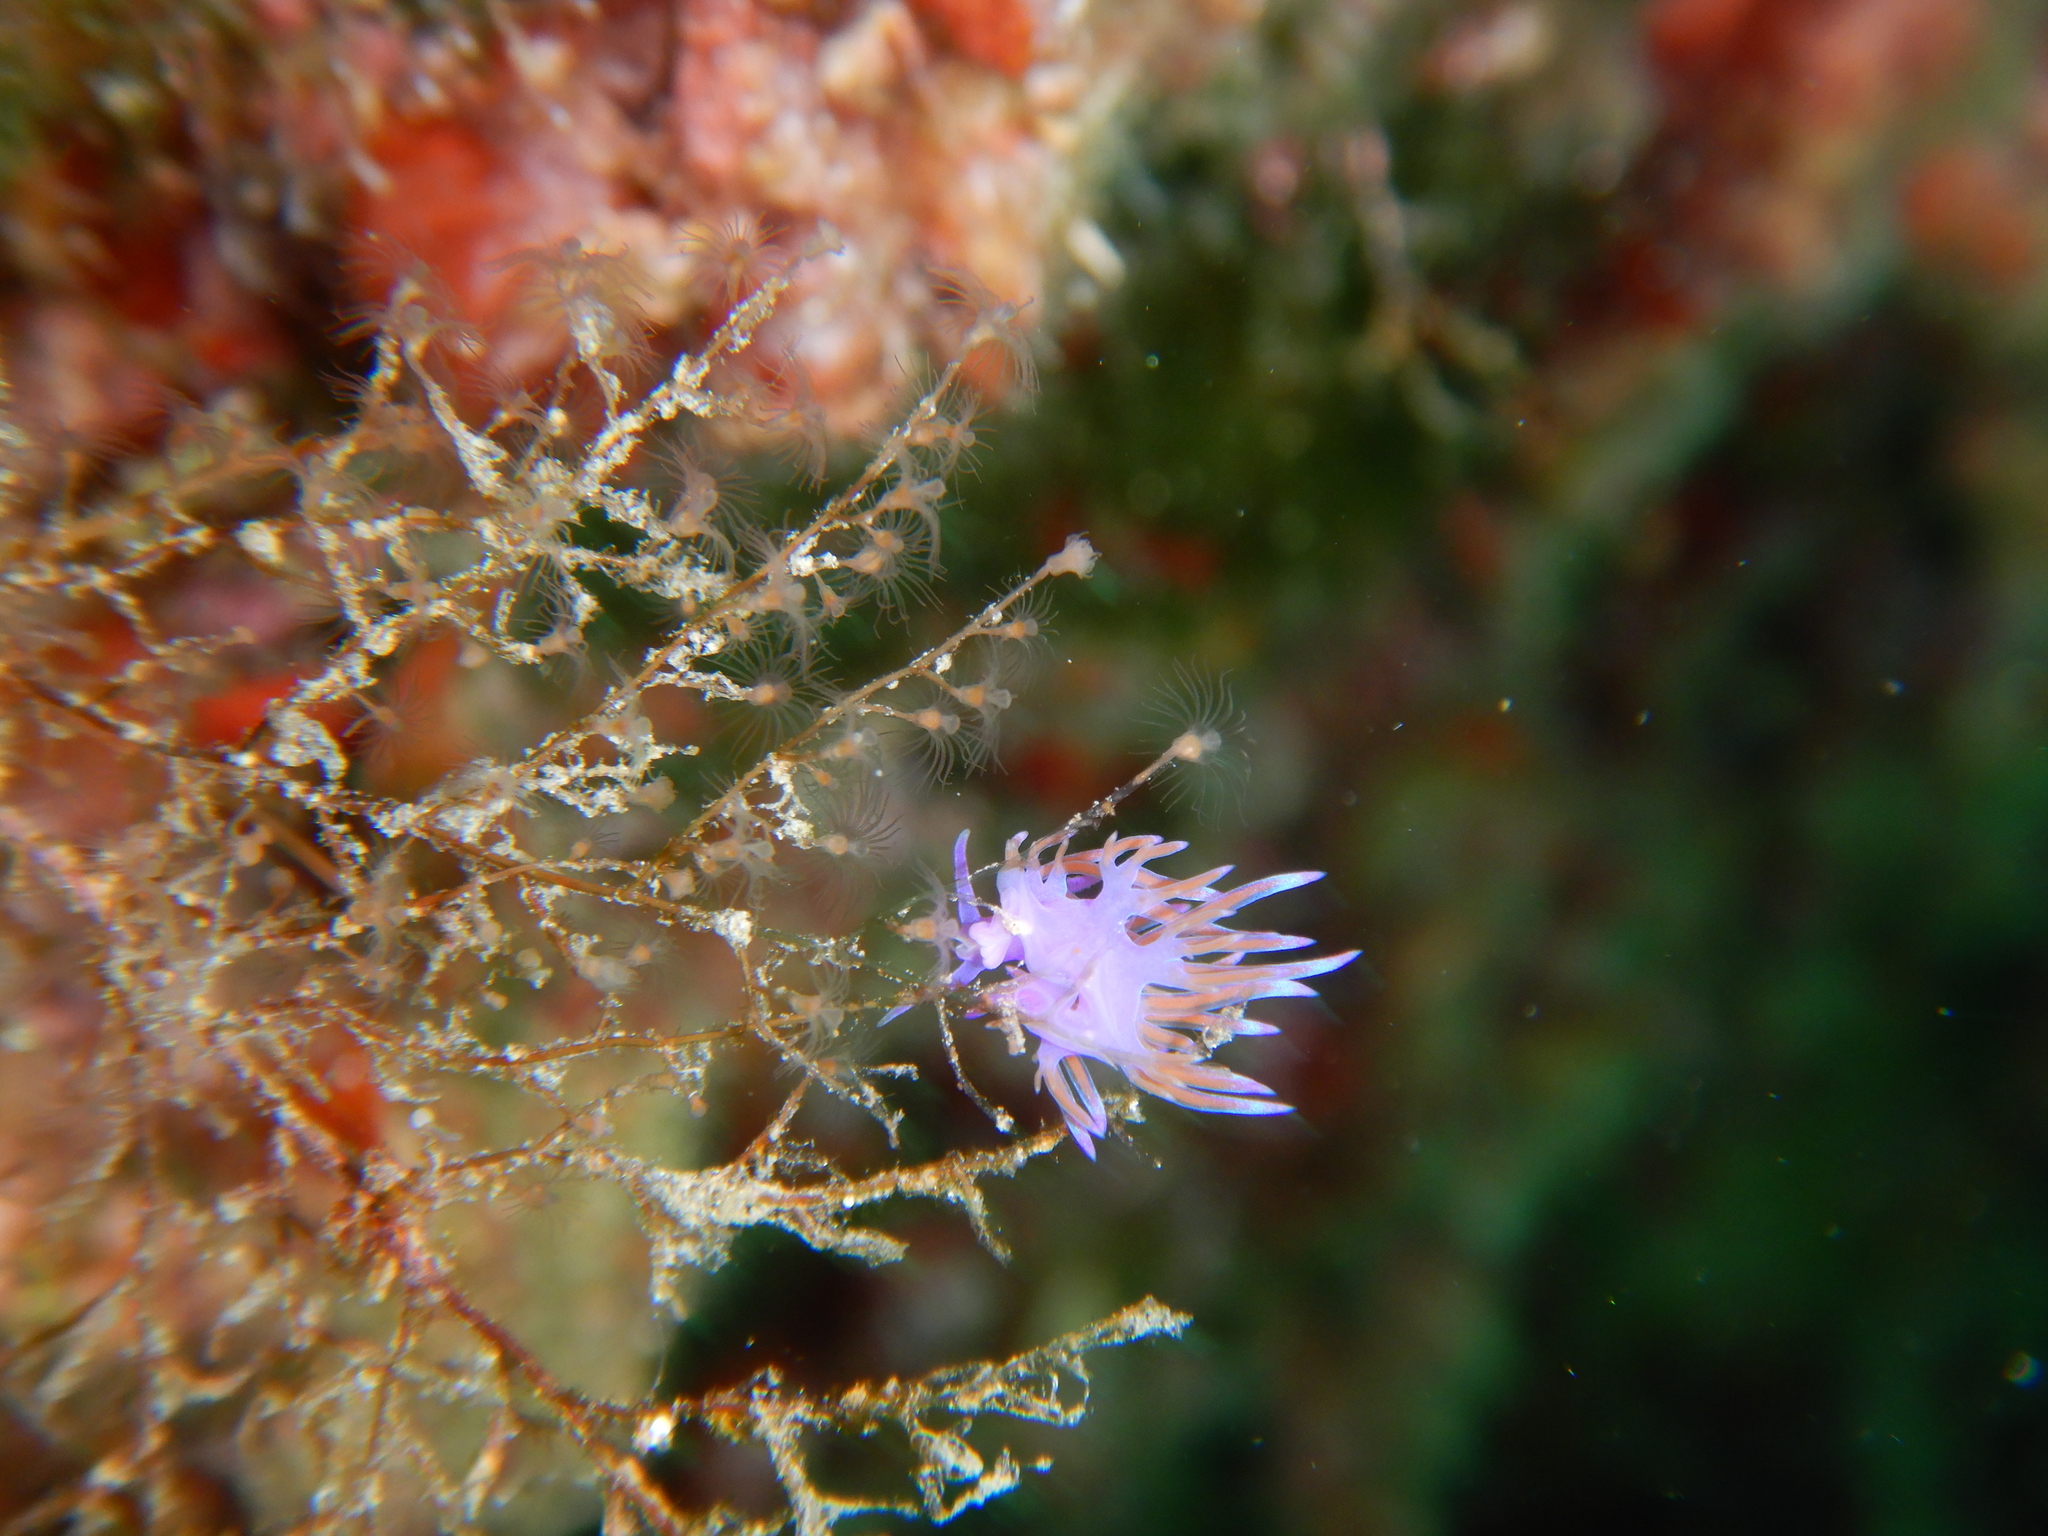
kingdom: Animalia
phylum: Mollusca
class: Gastropoda
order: Nudibranchia
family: Flabellinidae
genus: Flabellina
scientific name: Flabellina affinis
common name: Mediterranean violet aeolid
